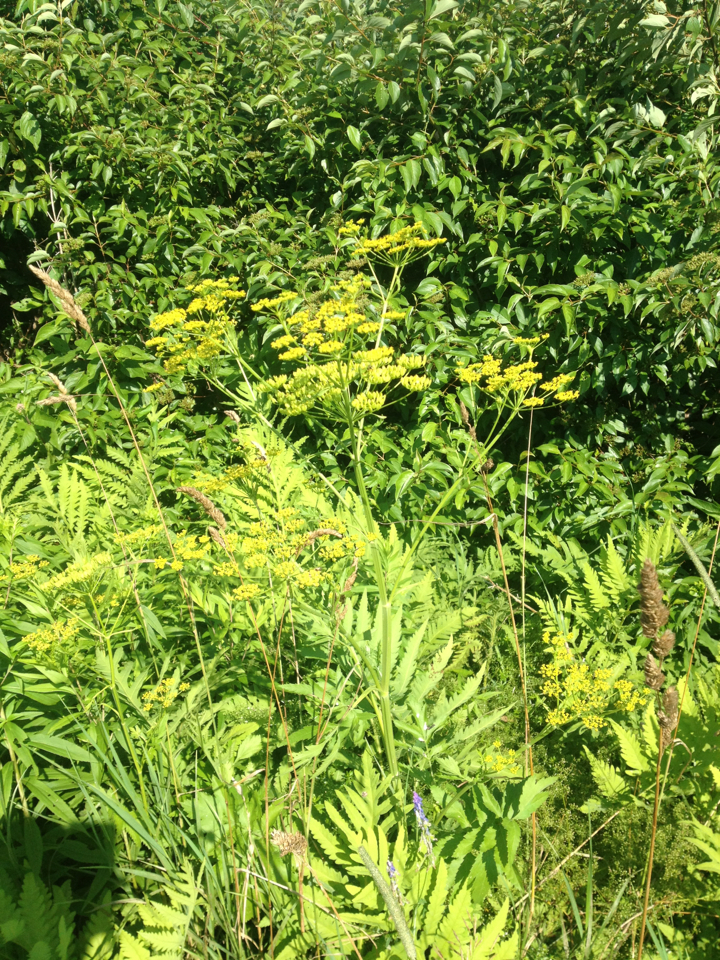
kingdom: Plantae
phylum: Tracheophyta
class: Magnoliopsida
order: Apiales
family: Apiaceae
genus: Pastinaca
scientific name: Pastinaca sativa
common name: Wild parsnip
